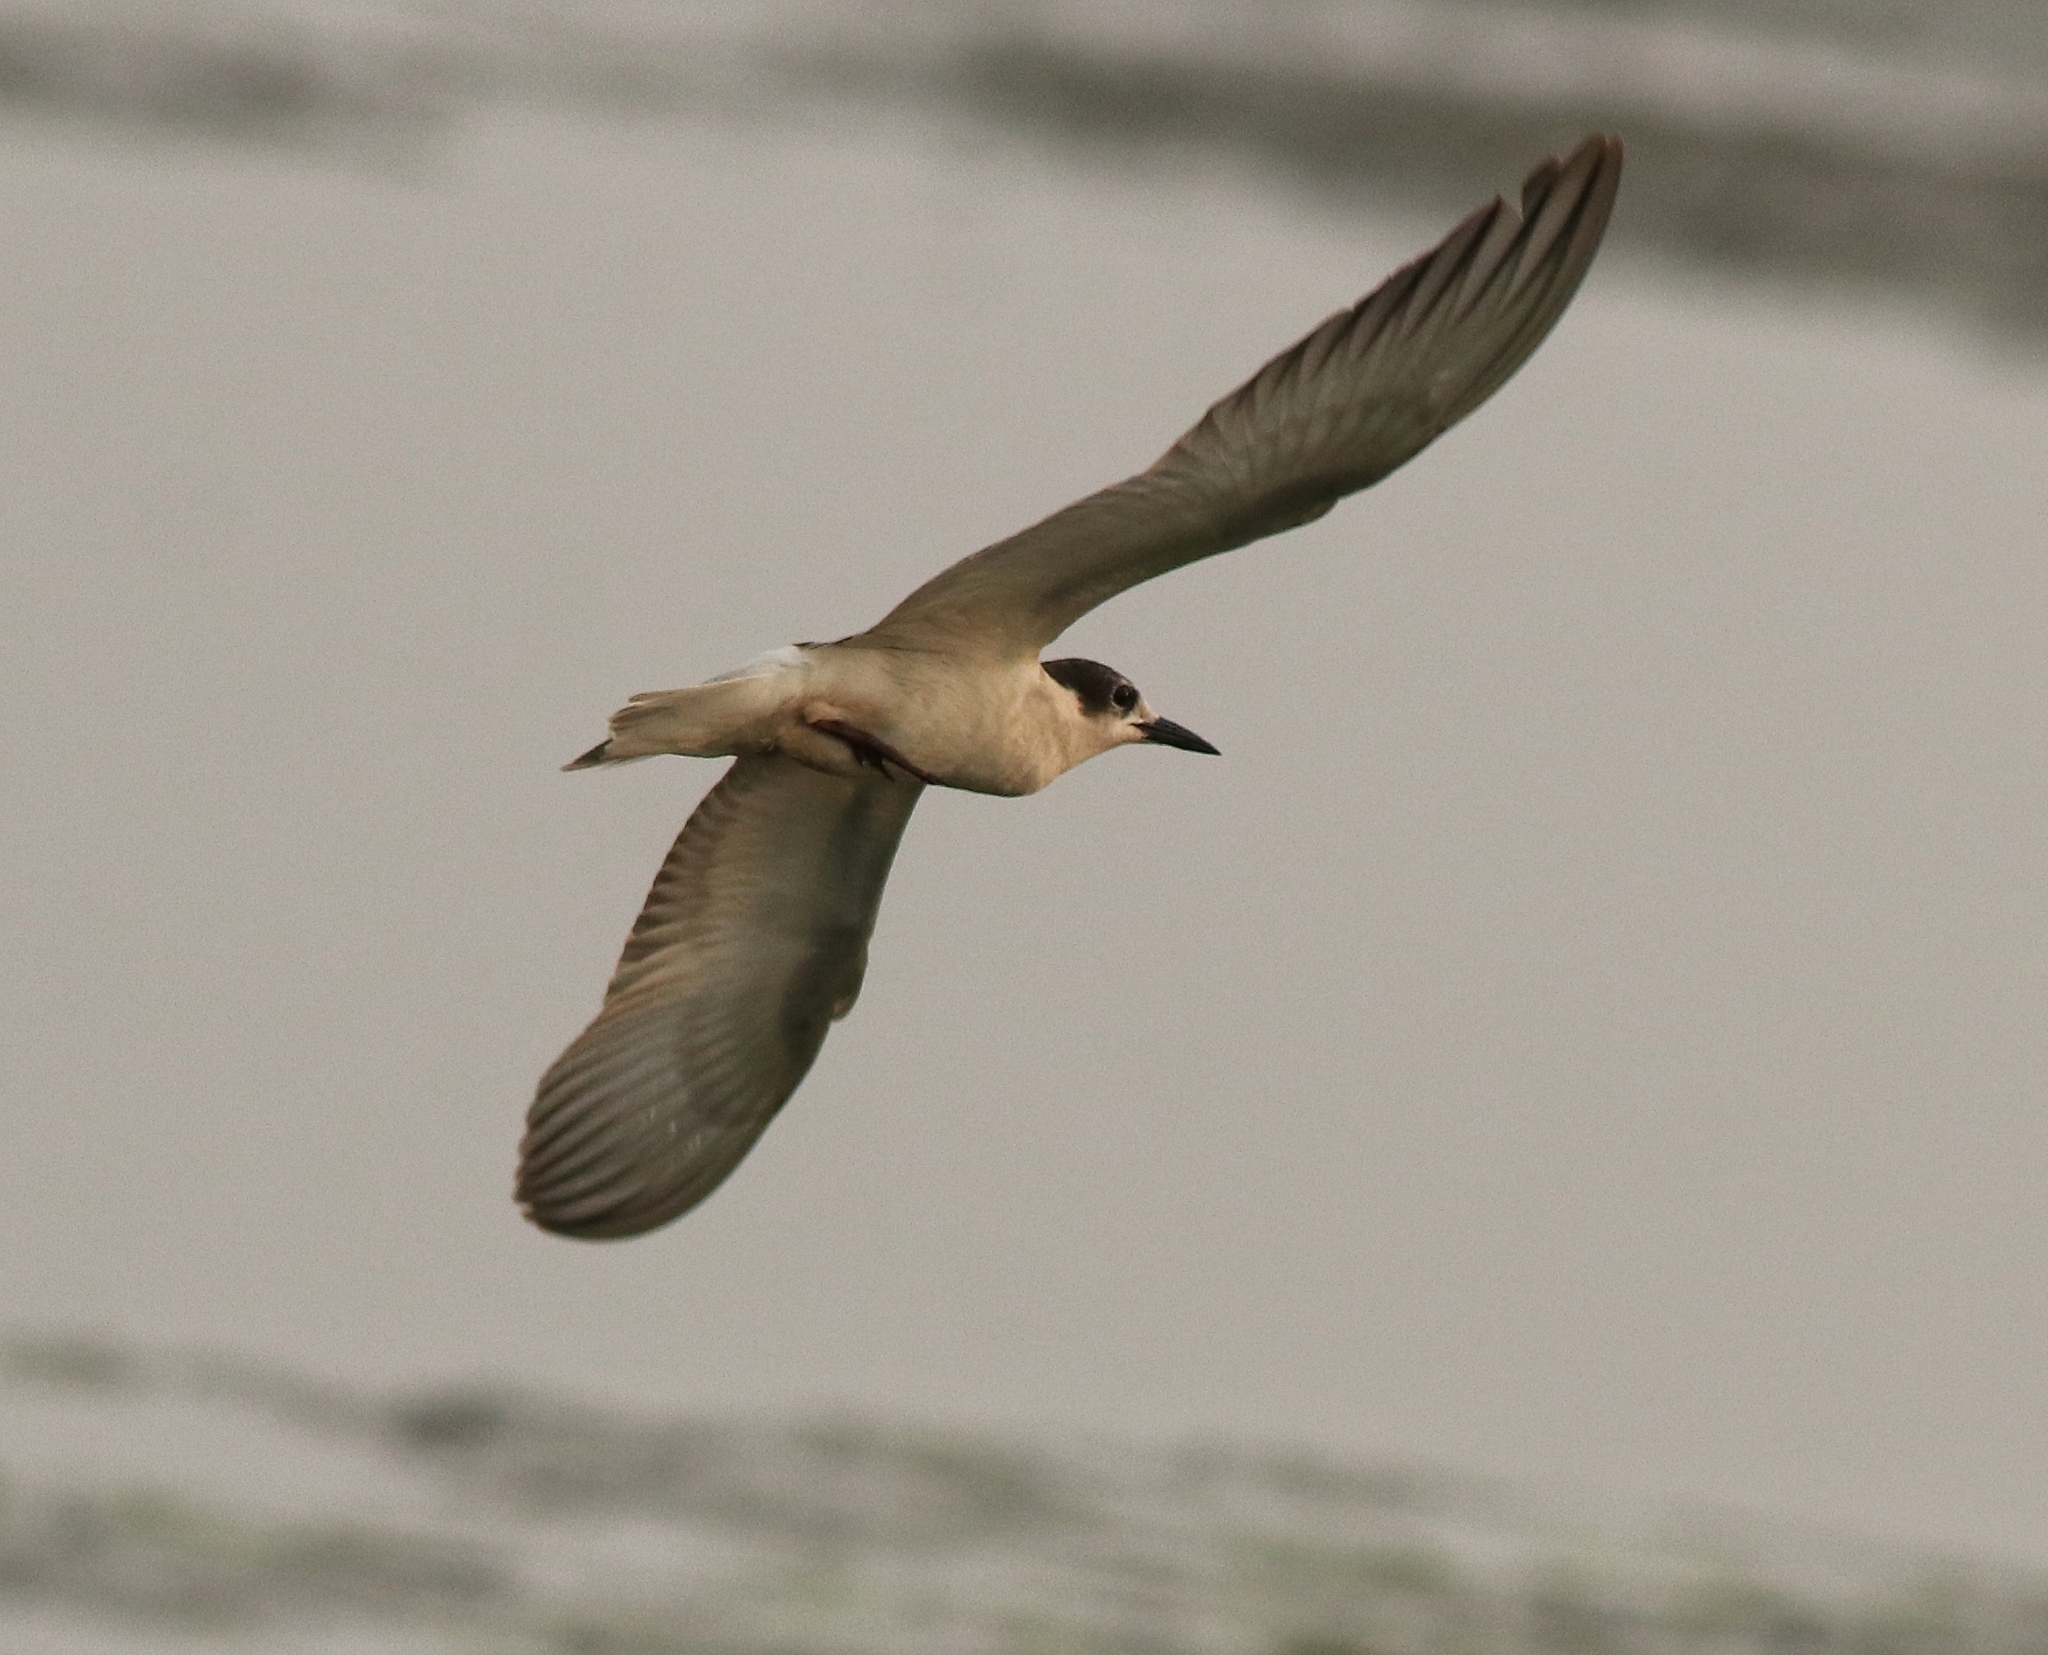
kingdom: Animalia
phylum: Chordata
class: Aves
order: Charadriiformes
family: Laridae
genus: Chlidonias
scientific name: Chlidonias hybrida
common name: Whiskered tern
